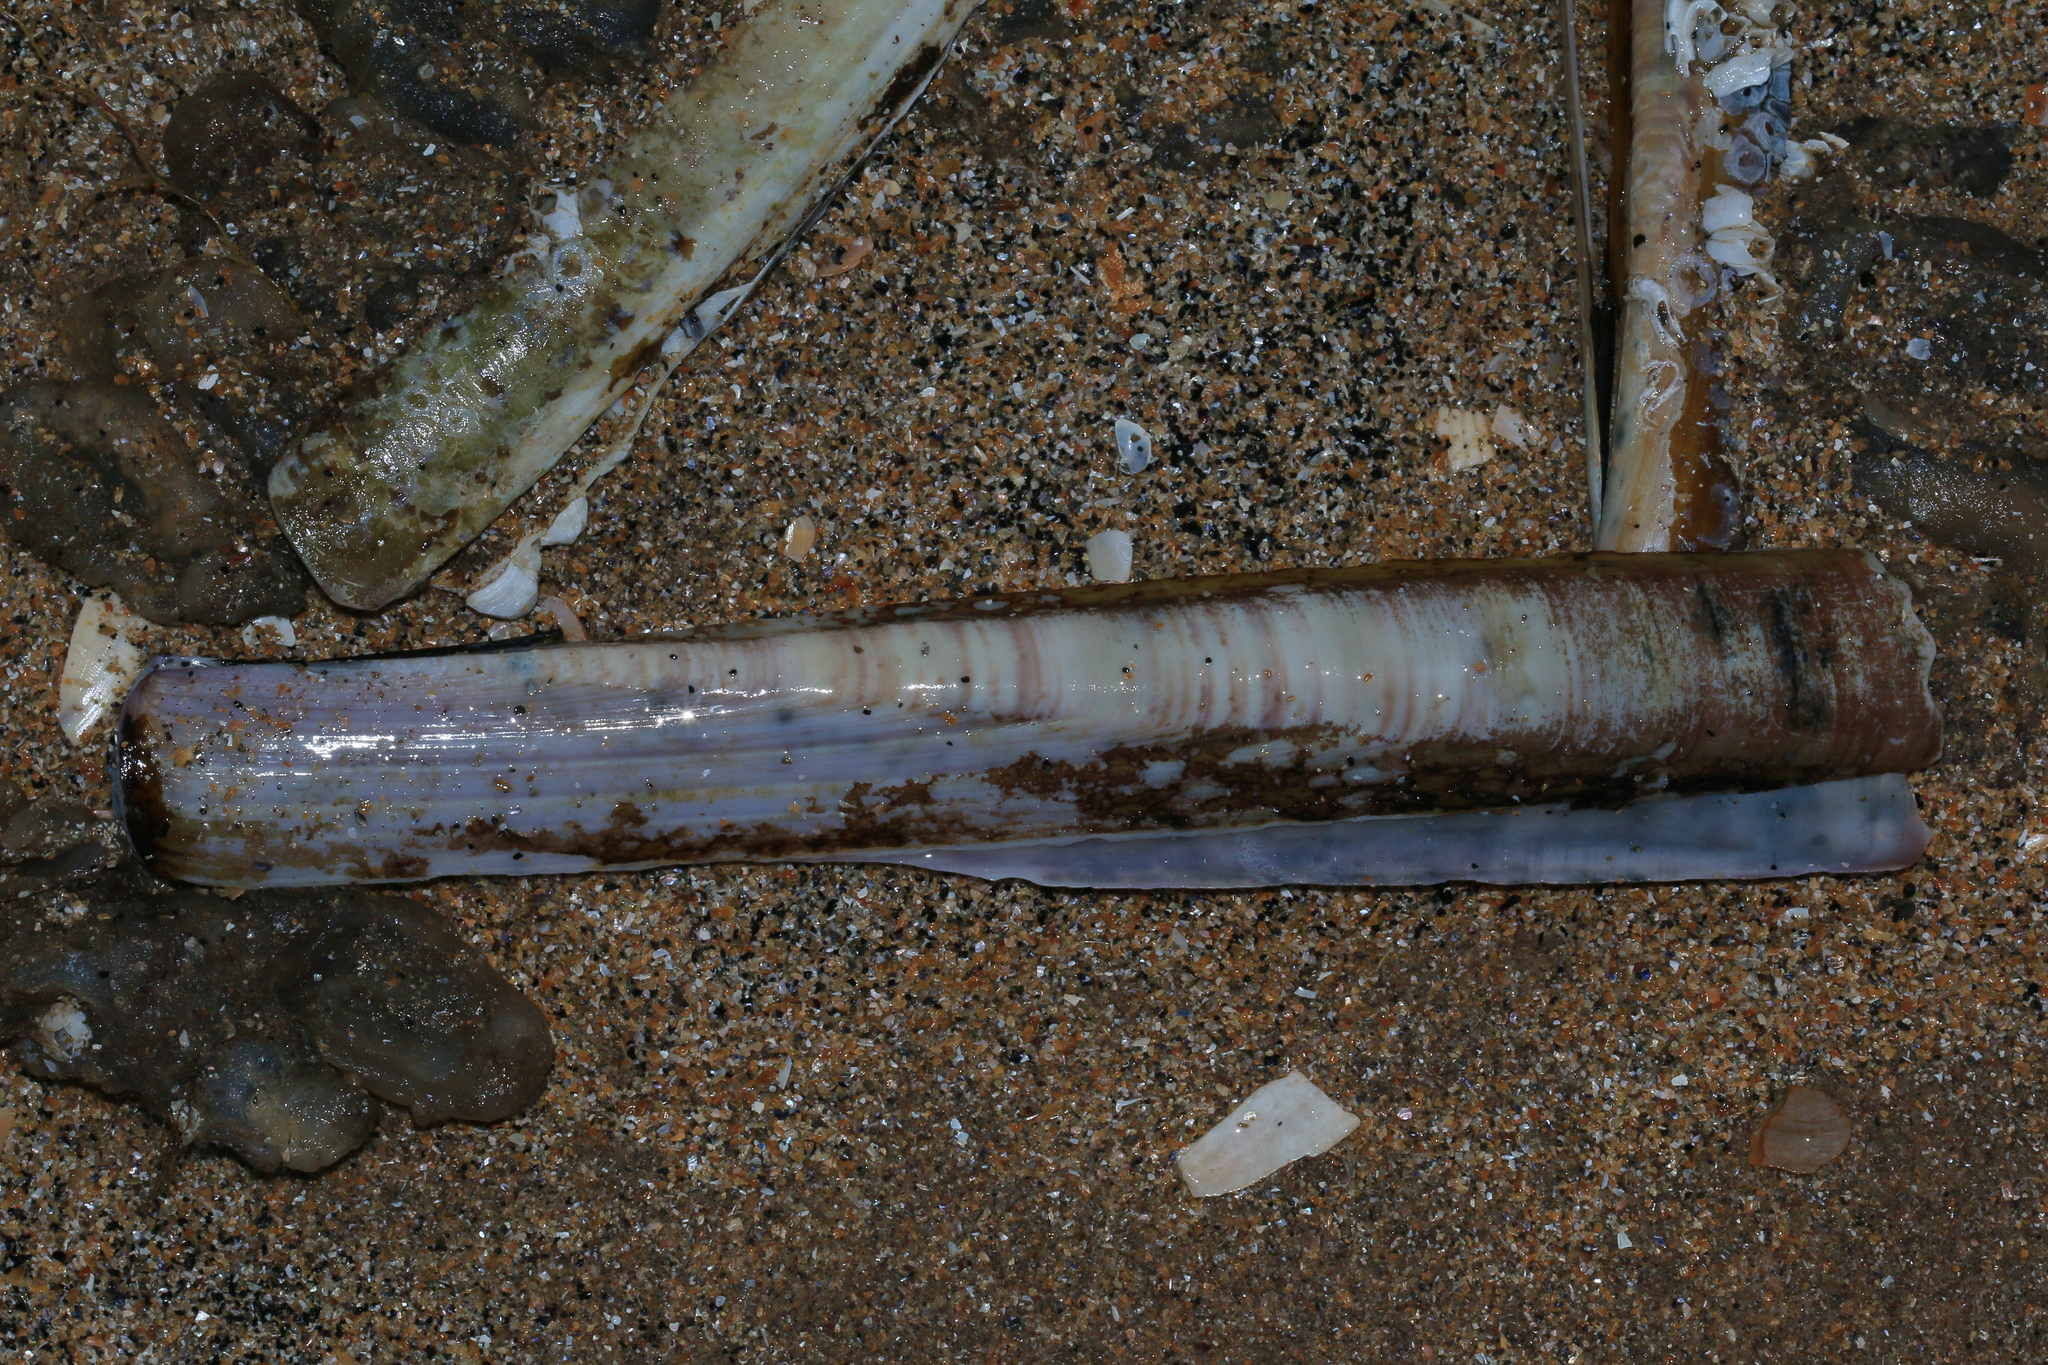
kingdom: Animalia
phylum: Mollusca
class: Bivalvia
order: Adapedonta
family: Pharidae
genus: Ensis
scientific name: Ensis siliqua
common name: Pod razor shell
